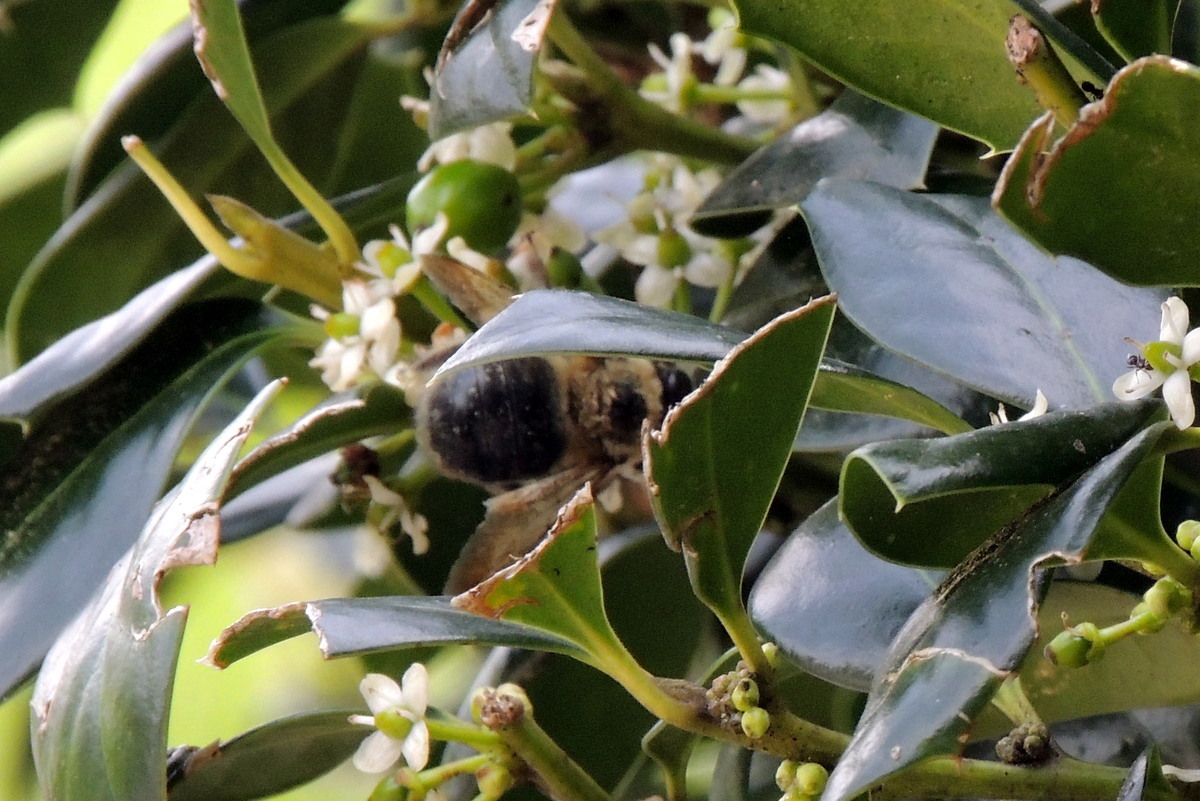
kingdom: Animalia
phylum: Arthropoda
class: Insecta
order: Hymenoptera
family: Apidae
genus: Xylocopa
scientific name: Xylocopa virginica
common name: Carpenter bee
